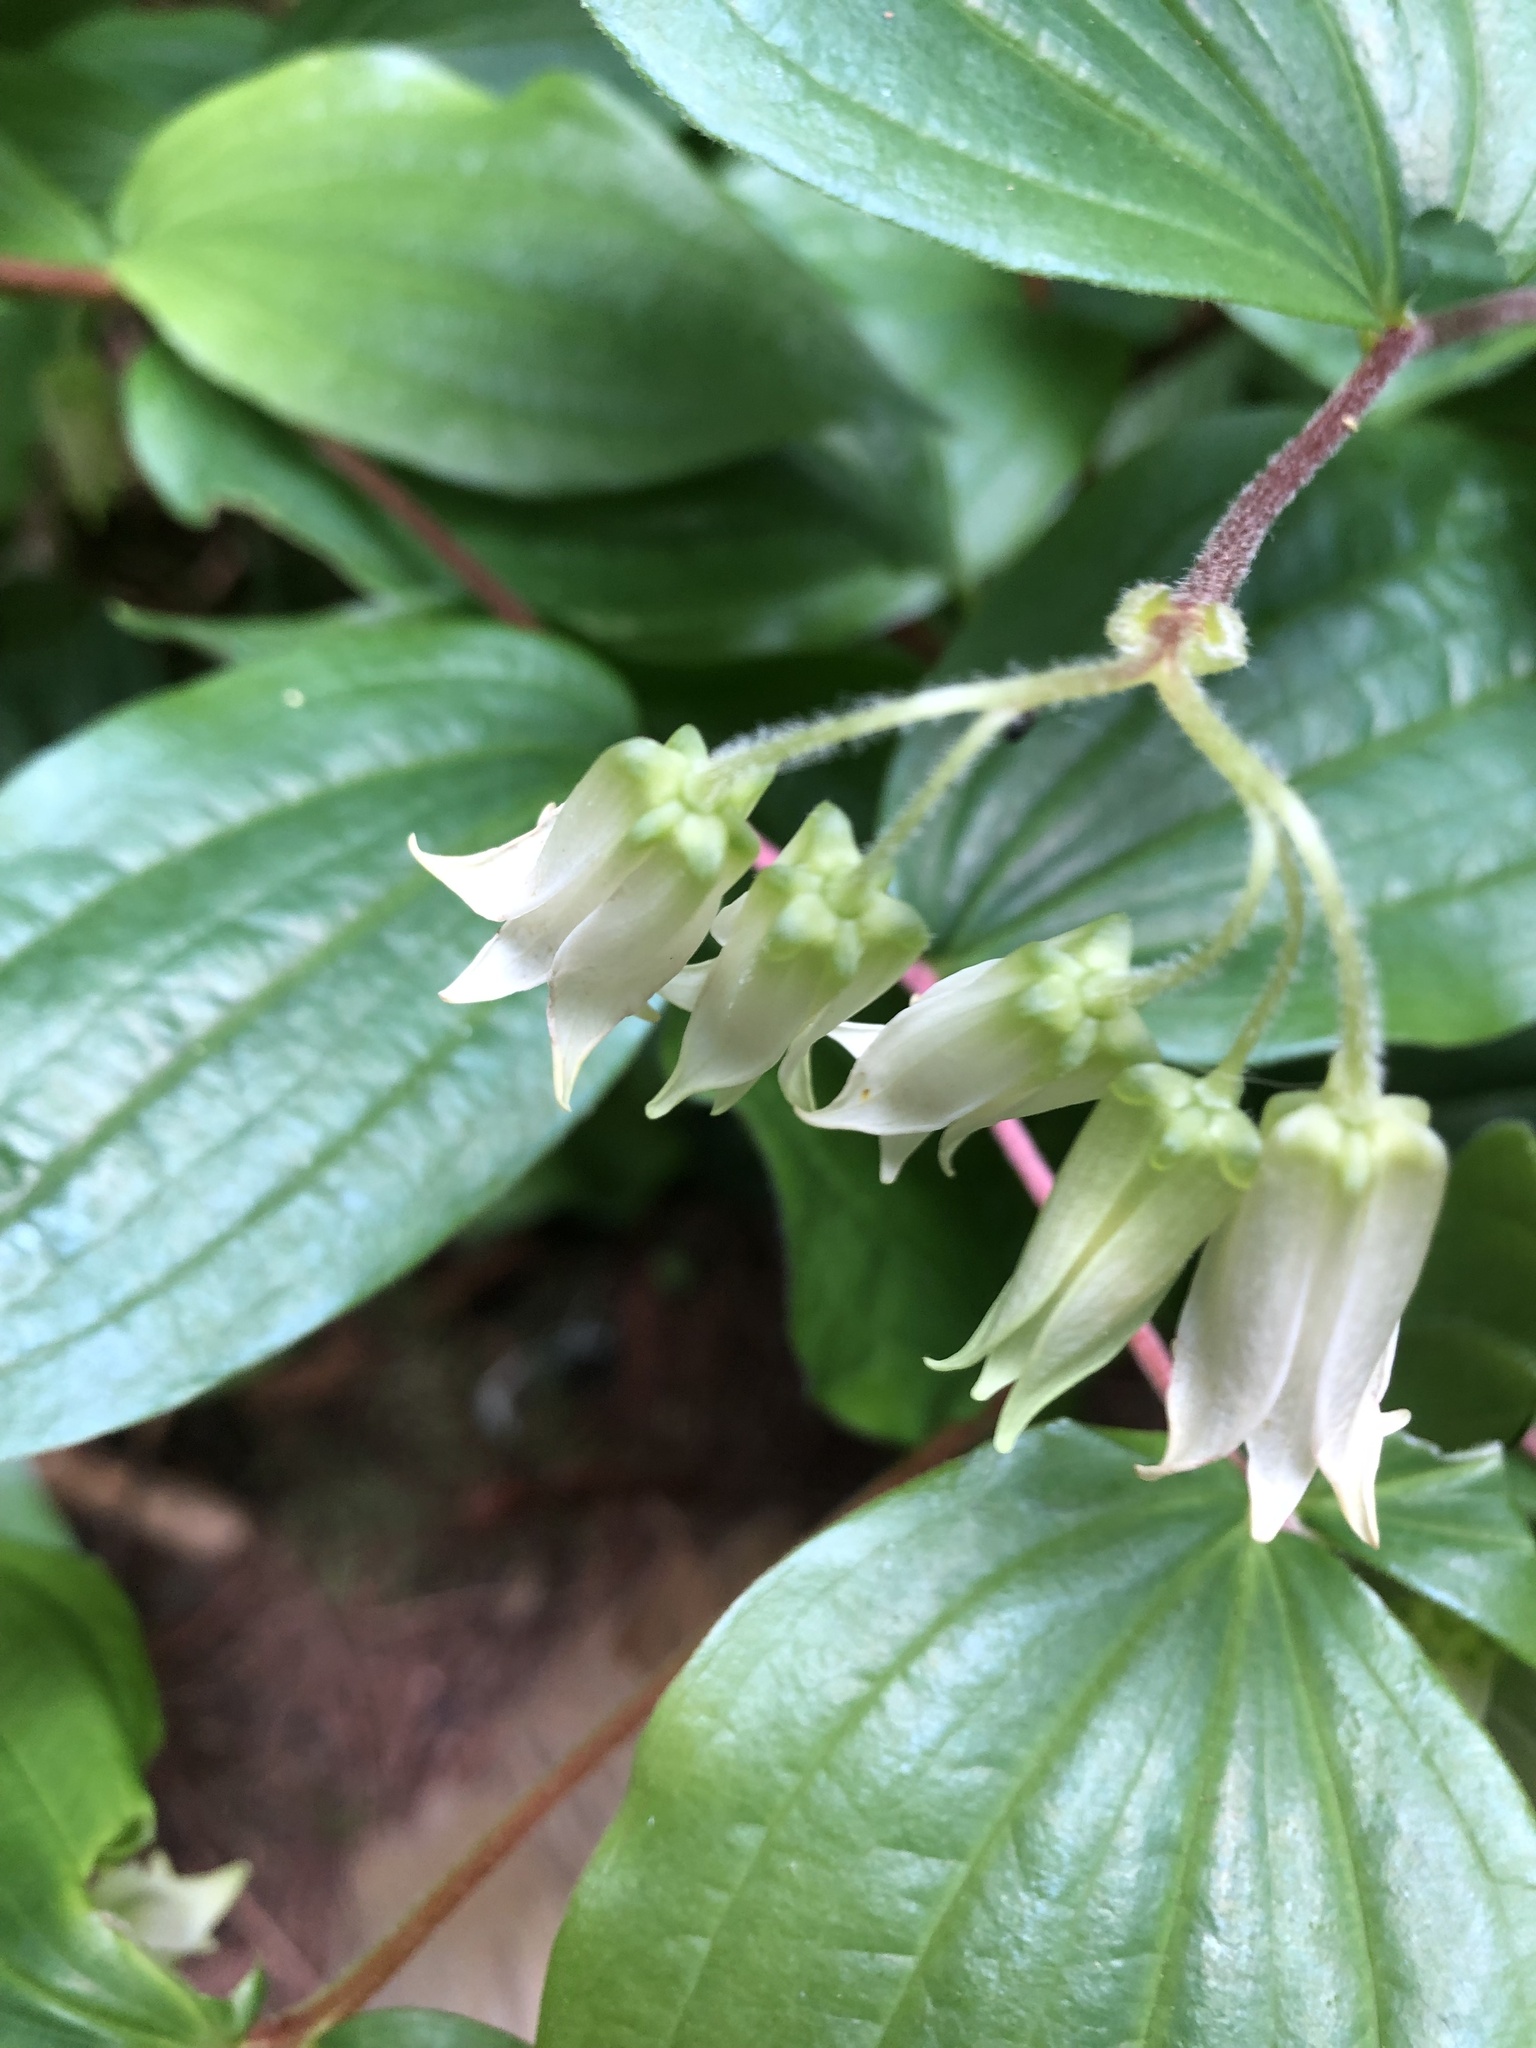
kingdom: Plantae
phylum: Tracheophyta
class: Liliopsida
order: Liliales
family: Liliaceae
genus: Prosartes
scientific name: Prosartes smithii
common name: Fairy-lantern
